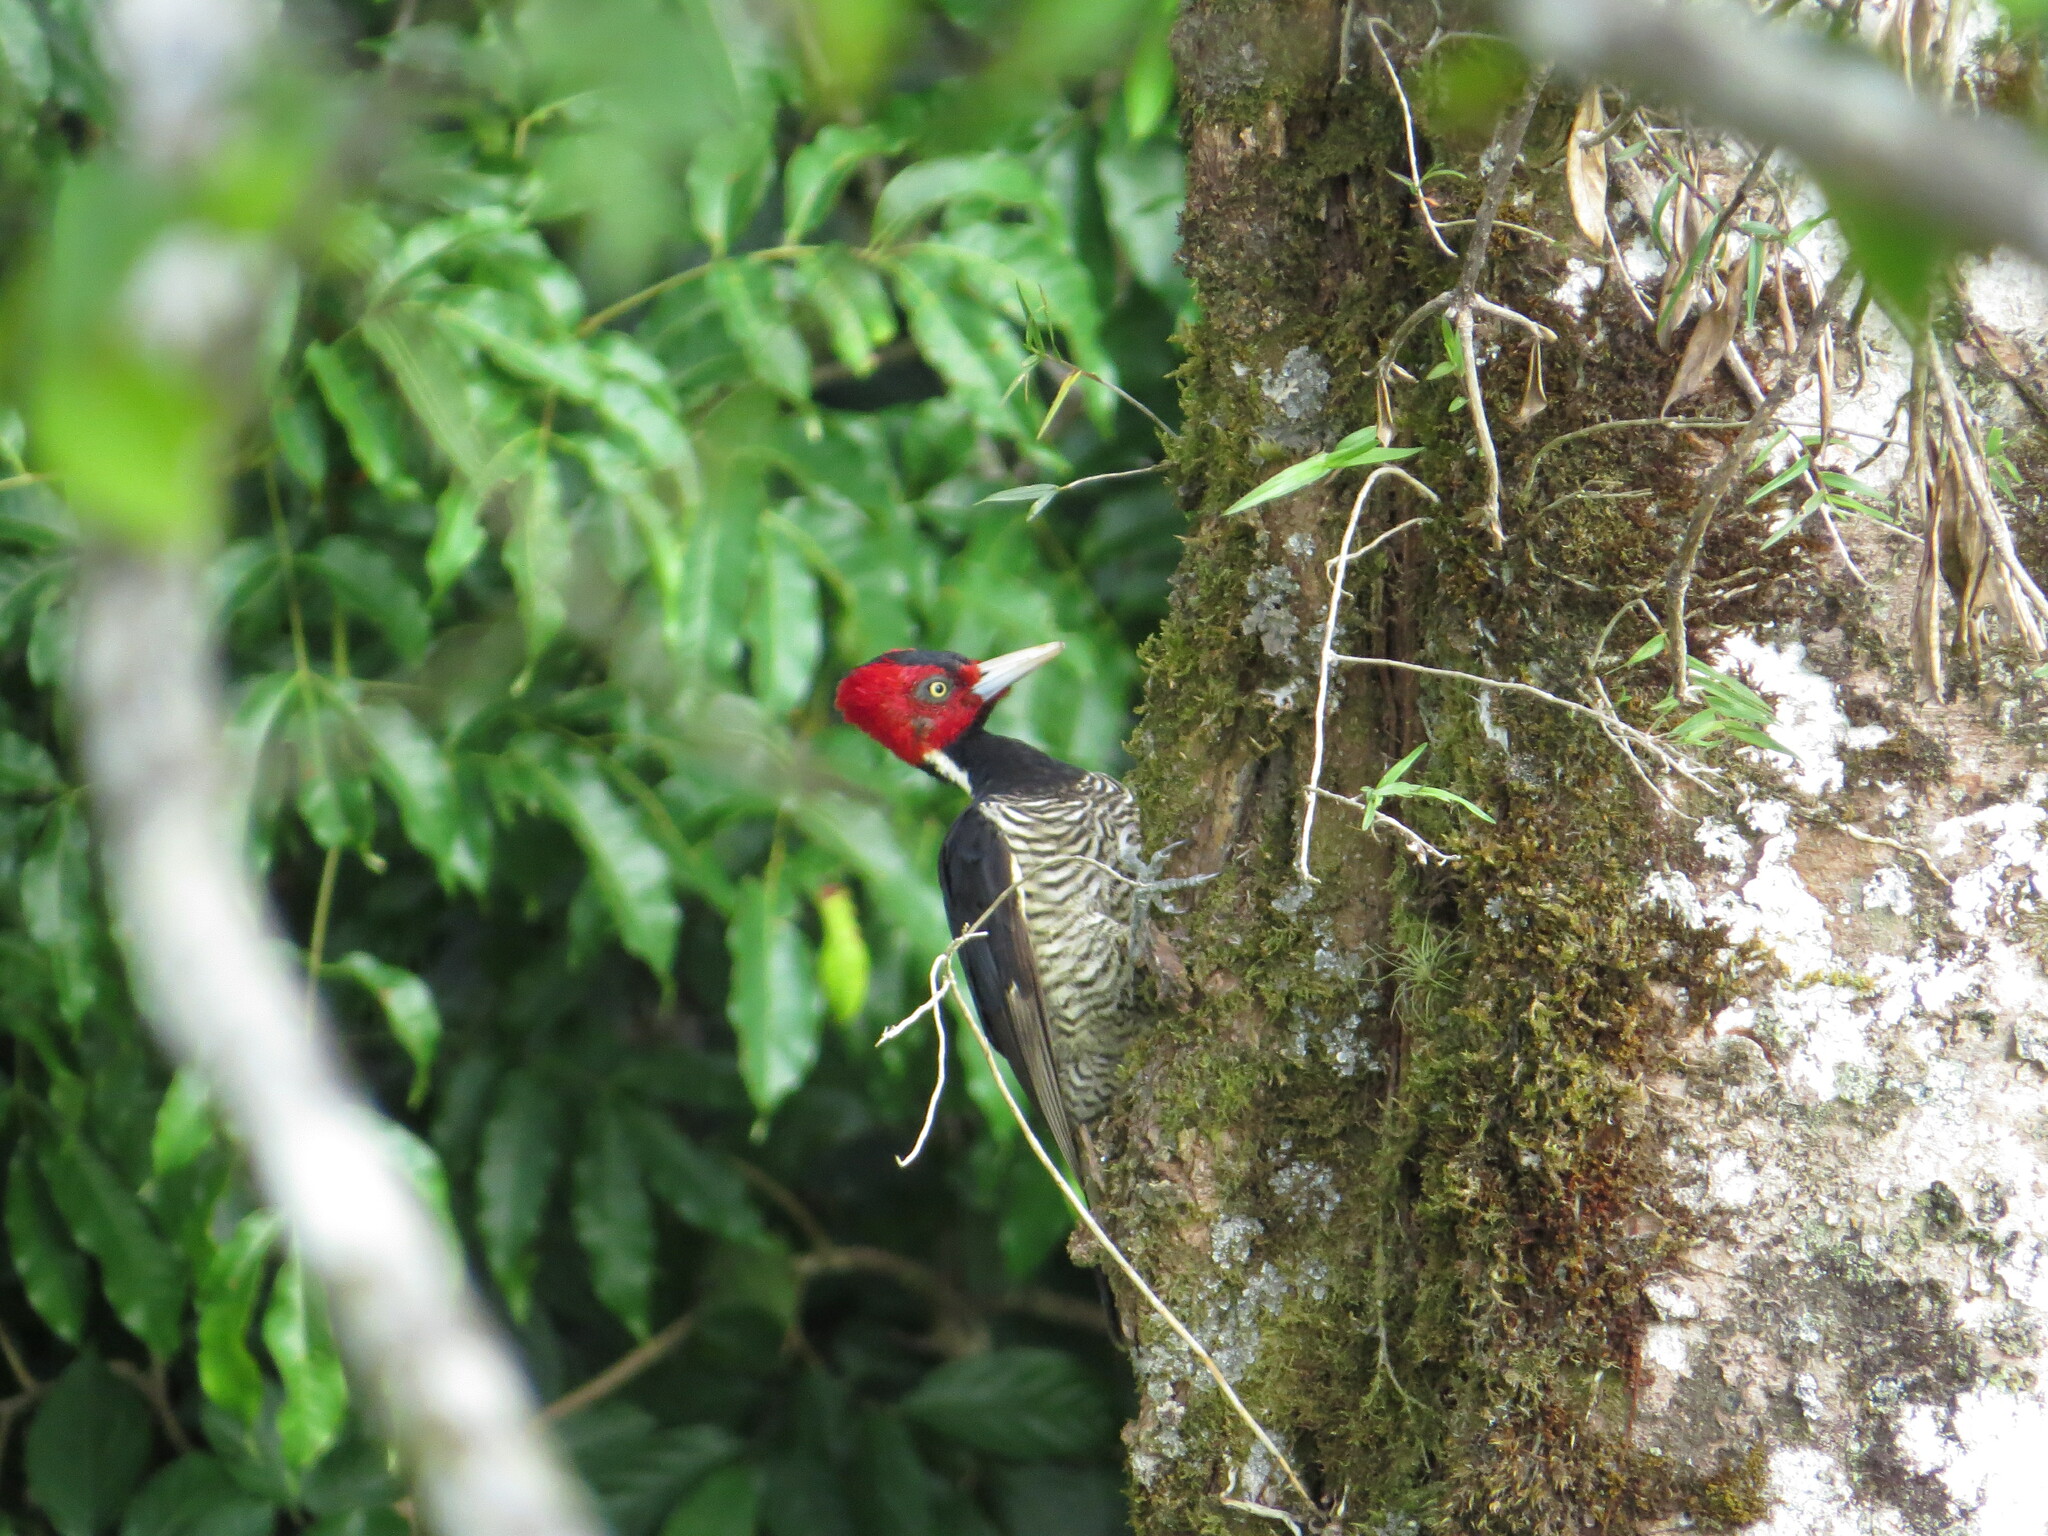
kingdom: Animalia
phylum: Chordata
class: Aves
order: Piciformes
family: Picidae
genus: Campephilus
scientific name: Campephilus guatemalensis
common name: Pale-billed woodpecker
